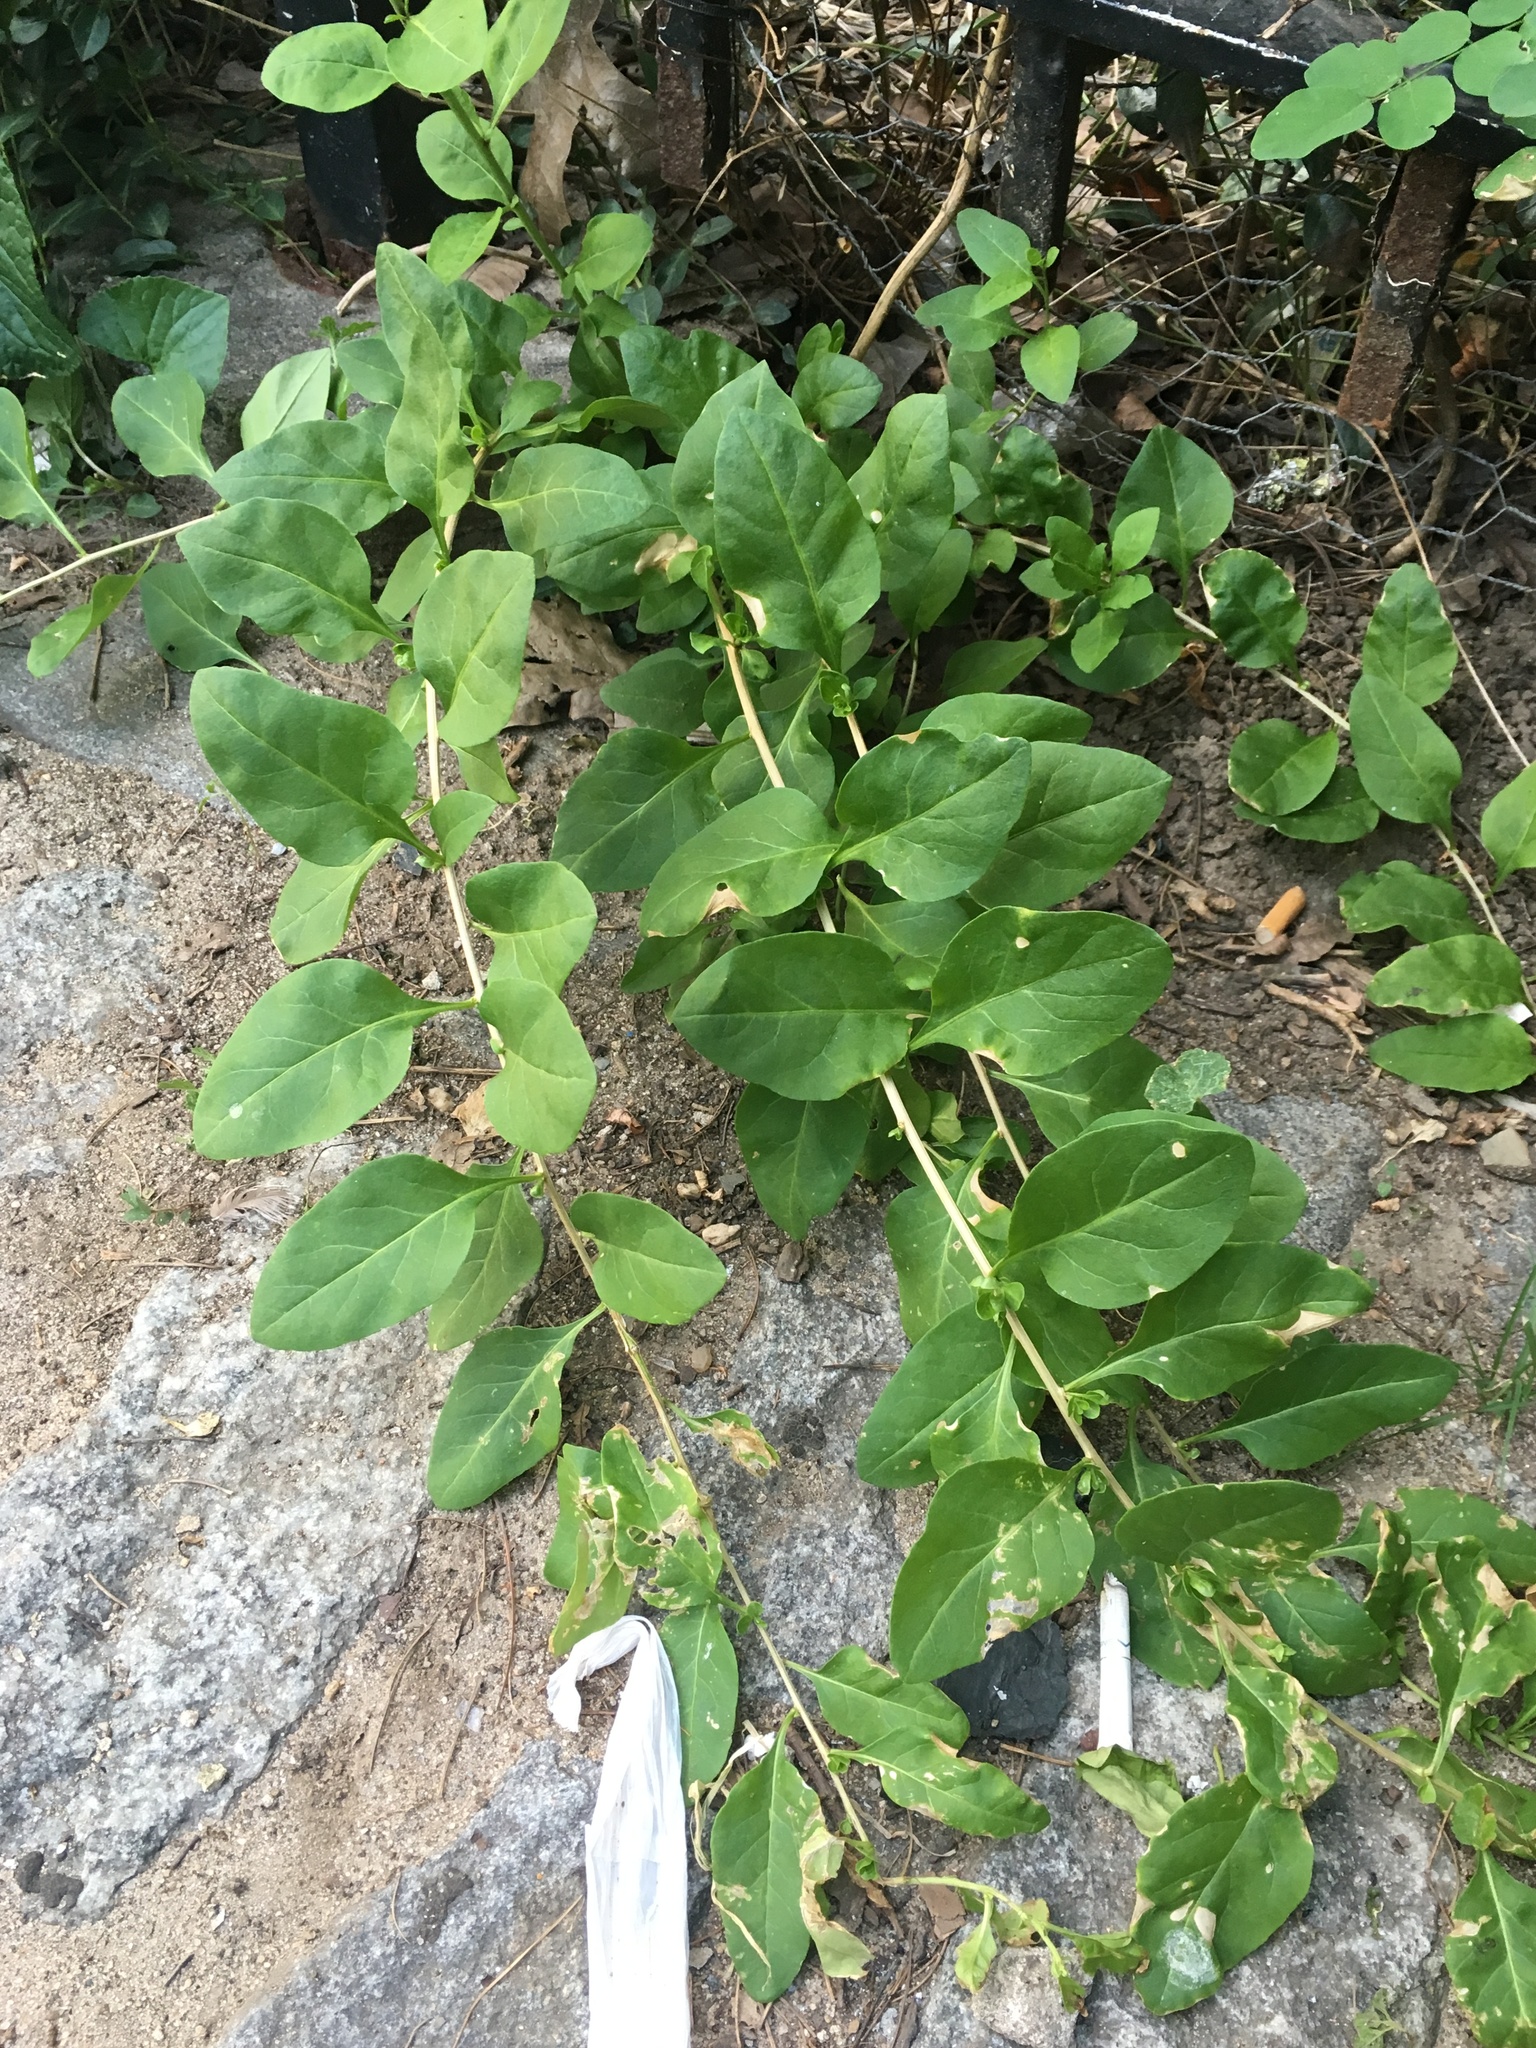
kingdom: Plantae
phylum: Tracheophyta
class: Magnoliopsida
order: Solanales
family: Solanaceae
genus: Lycium
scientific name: Lycium barbarum
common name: Duke of argyll's teaplant
